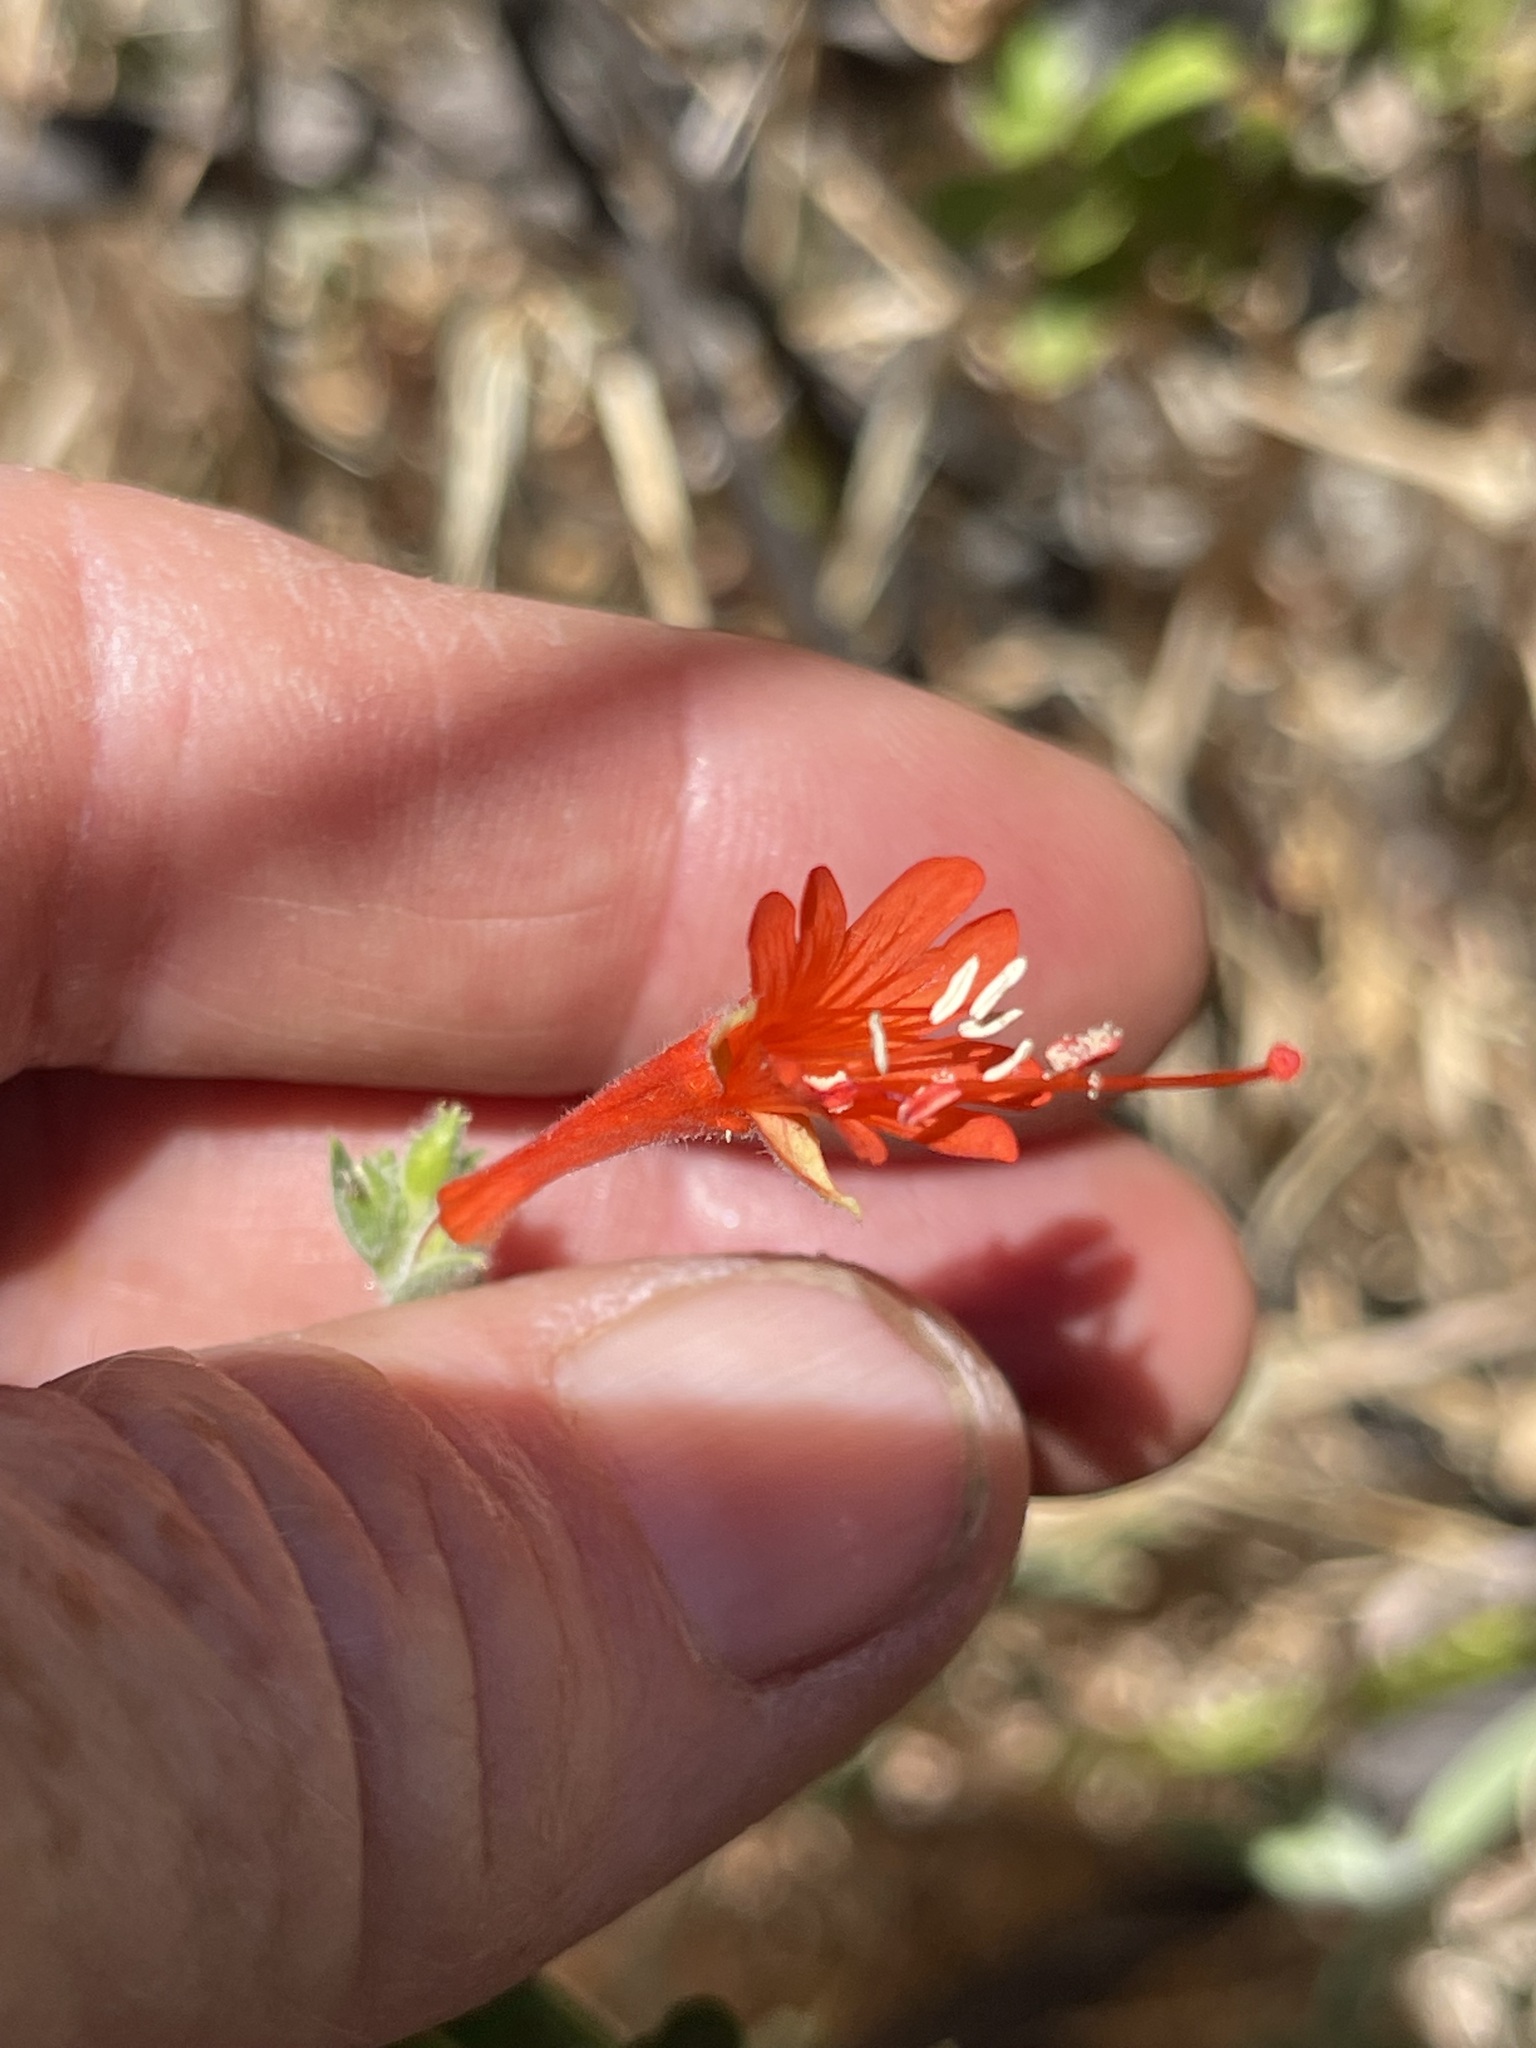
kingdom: Plantae
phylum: Tracheophyta
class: Magnoliopsida
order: Myrtales
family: Onagraceae
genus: Epilobium
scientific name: Epilobium canum
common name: California-fuchsia
